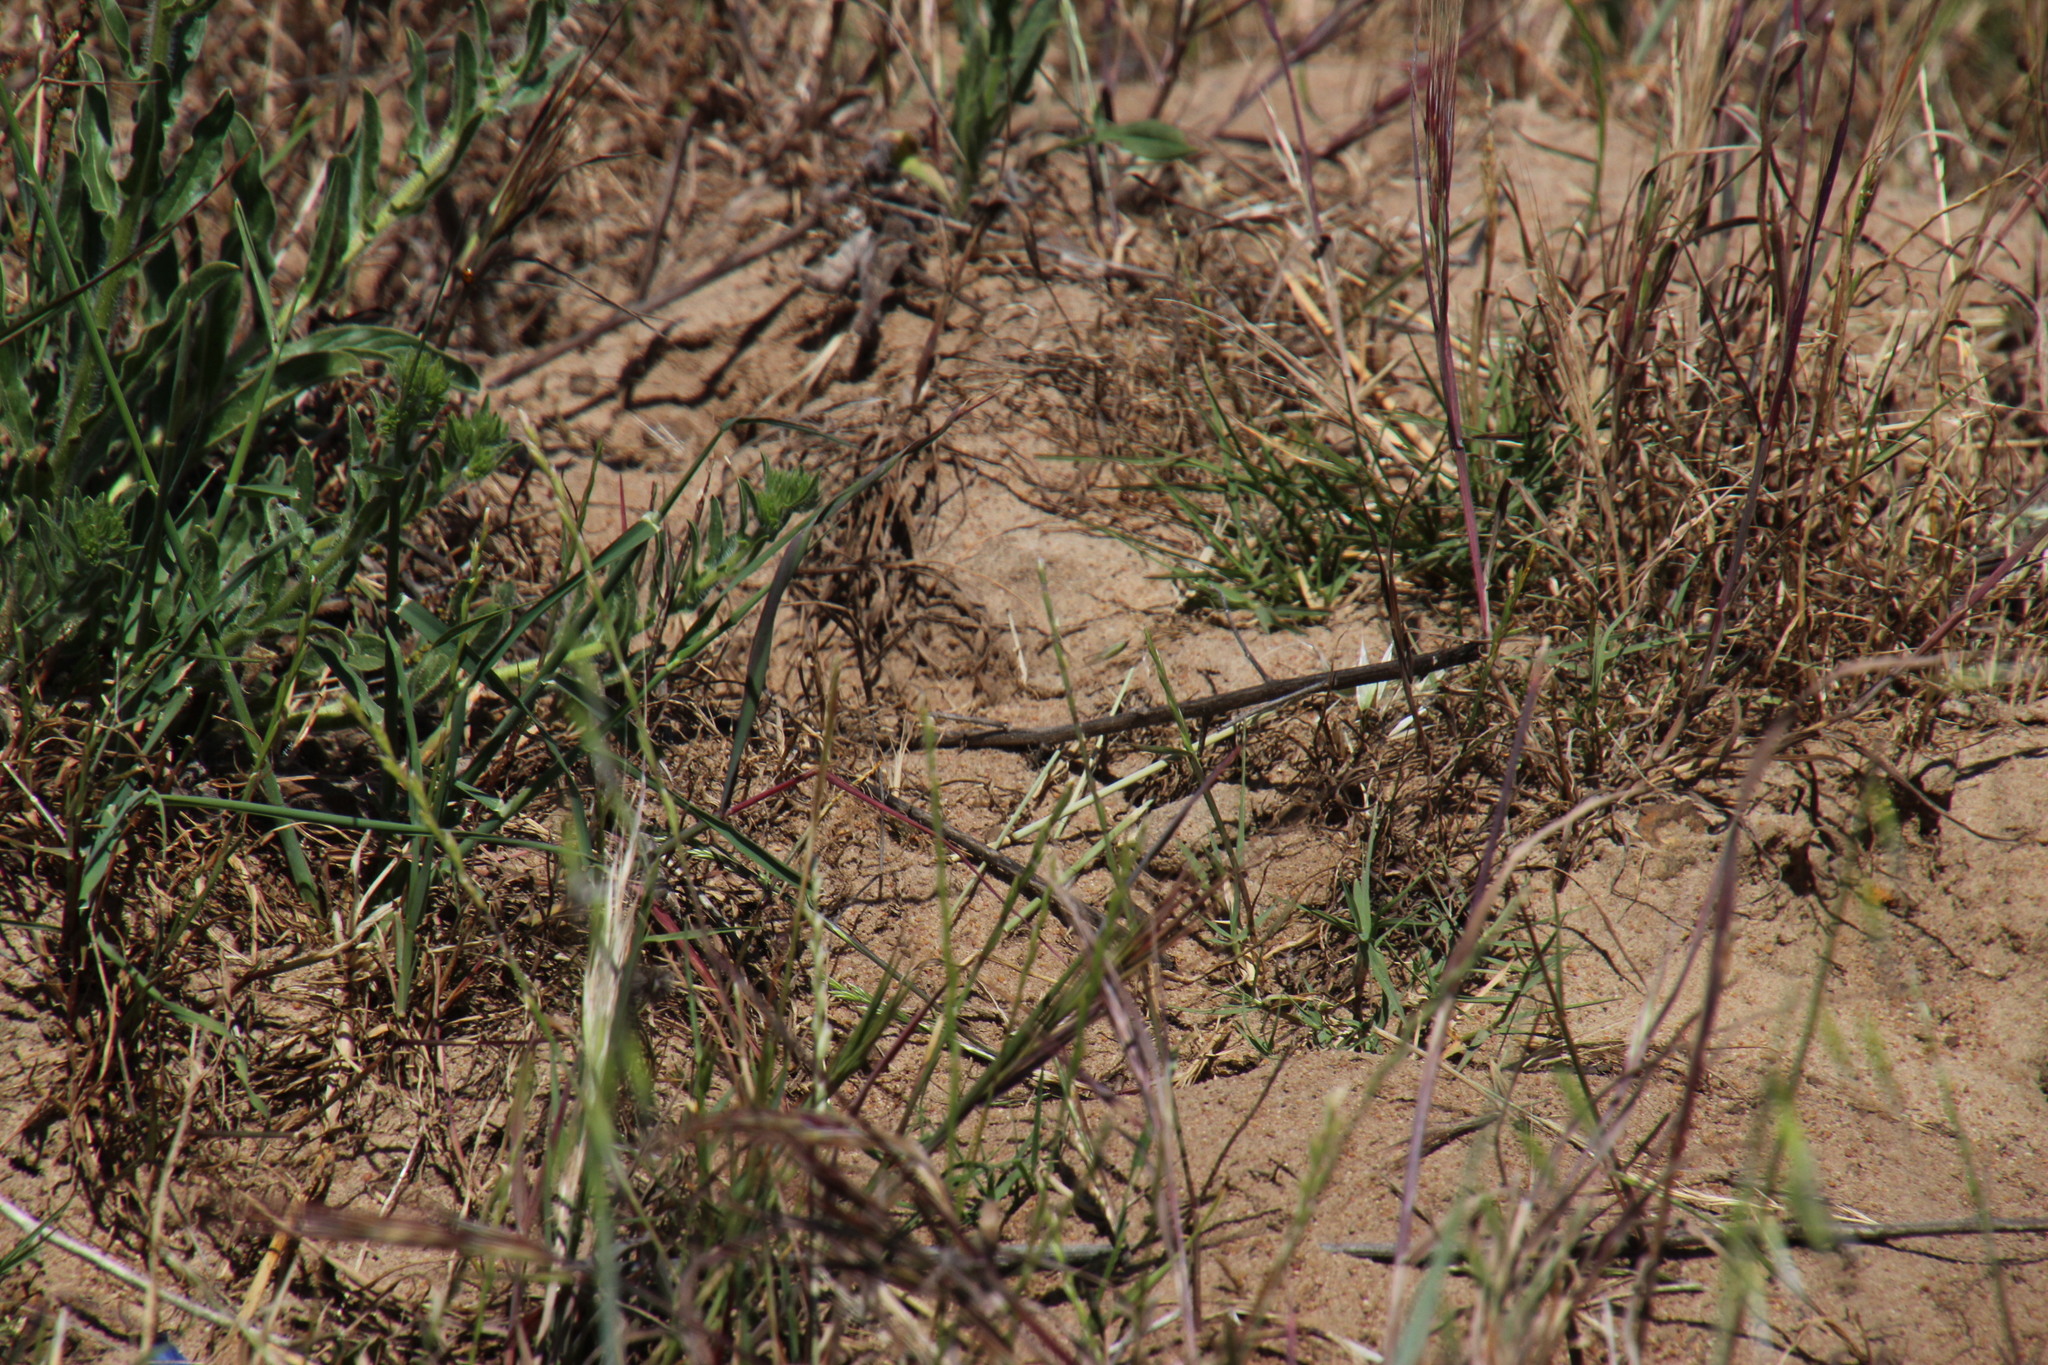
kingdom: Animalia
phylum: Chordata
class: Squamata
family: Elapidae
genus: Naja
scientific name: Naja nivea
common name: Cape cobra
